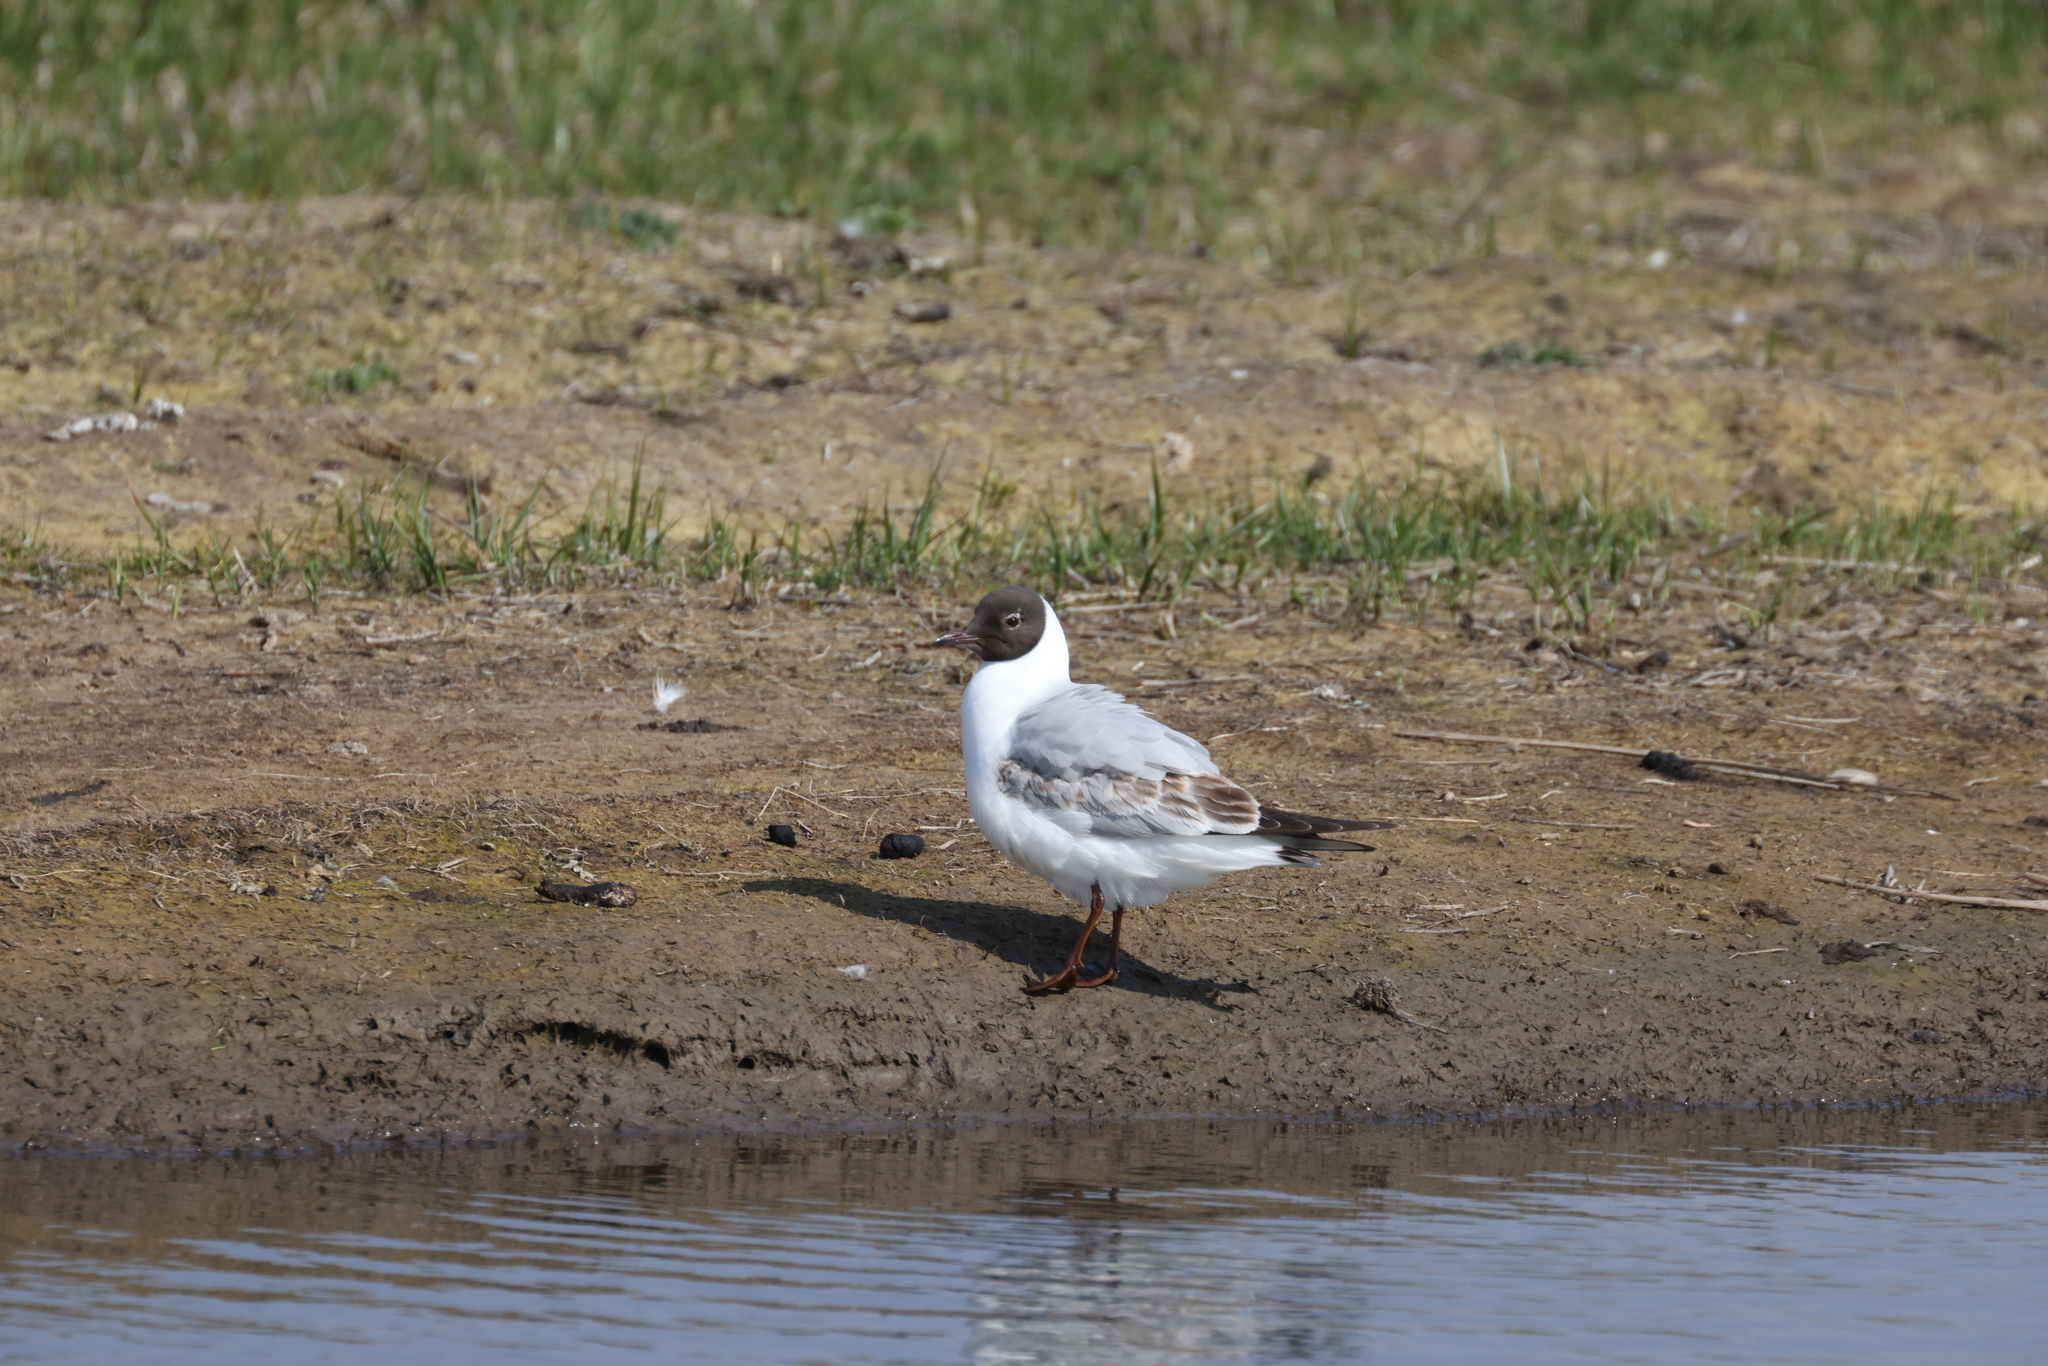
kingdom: Animalia
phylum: Chordata
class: Aves
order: Charadriiformes
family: Laridae
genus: Chroicocephalus
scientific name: Chroicocephalus ridibundus
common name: Black-headed gull
